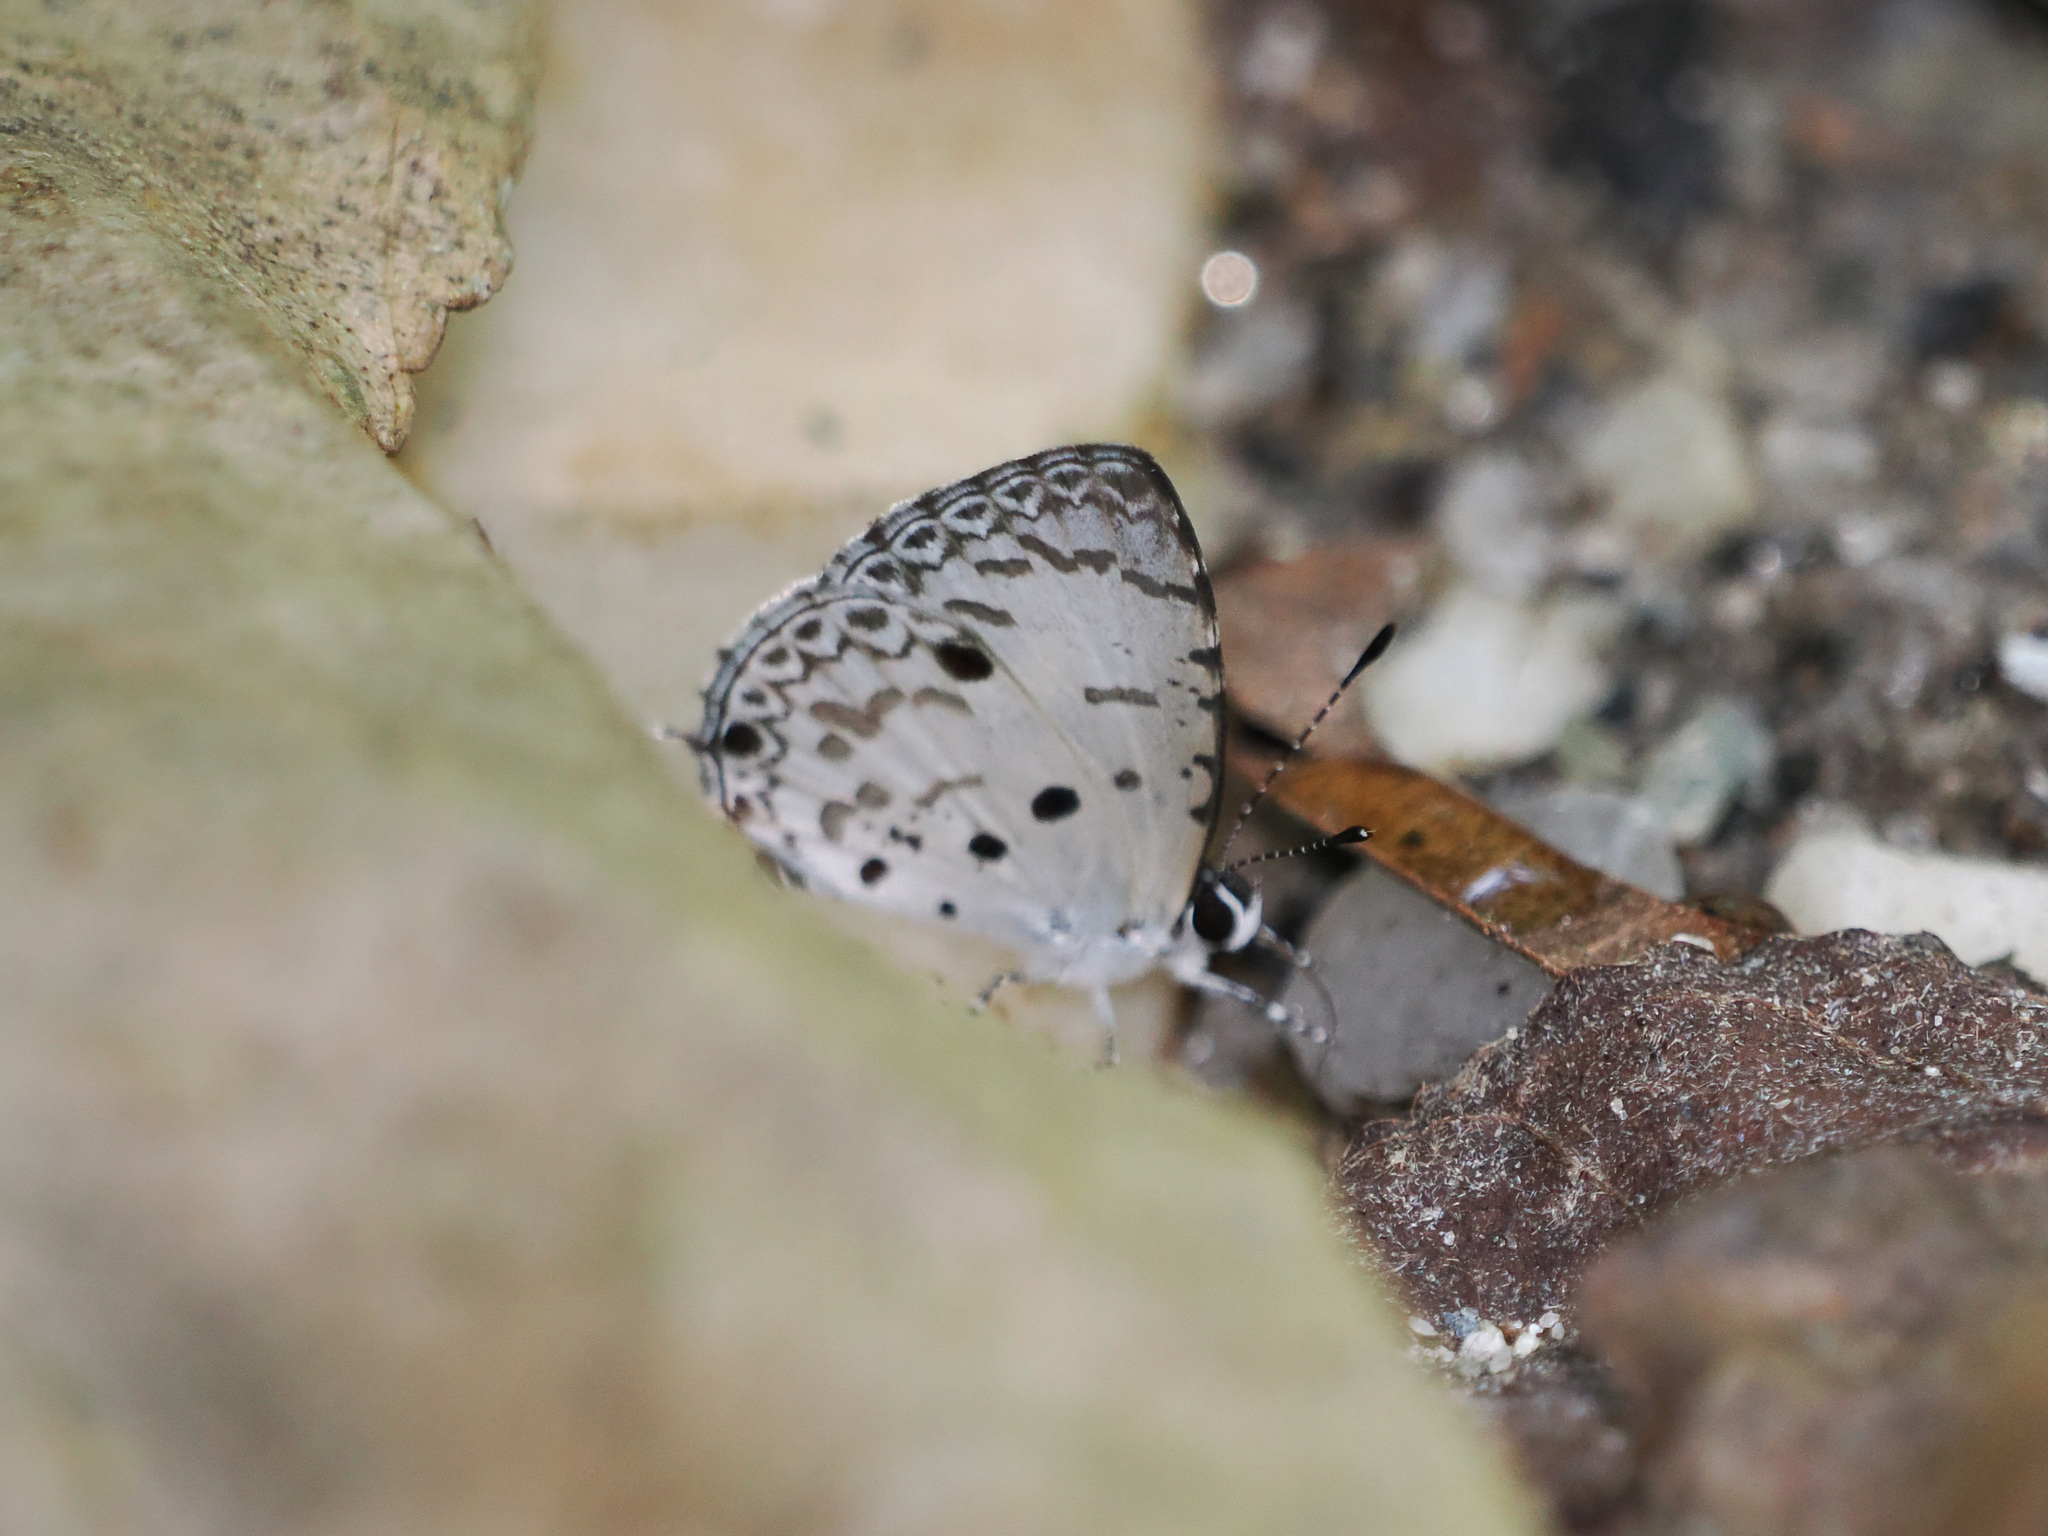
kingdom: Animalia
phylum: Arthropoda
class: Insecta
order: Lepidoptera
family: Lycaenidae
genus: Megisba
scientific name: Megisba malaya
